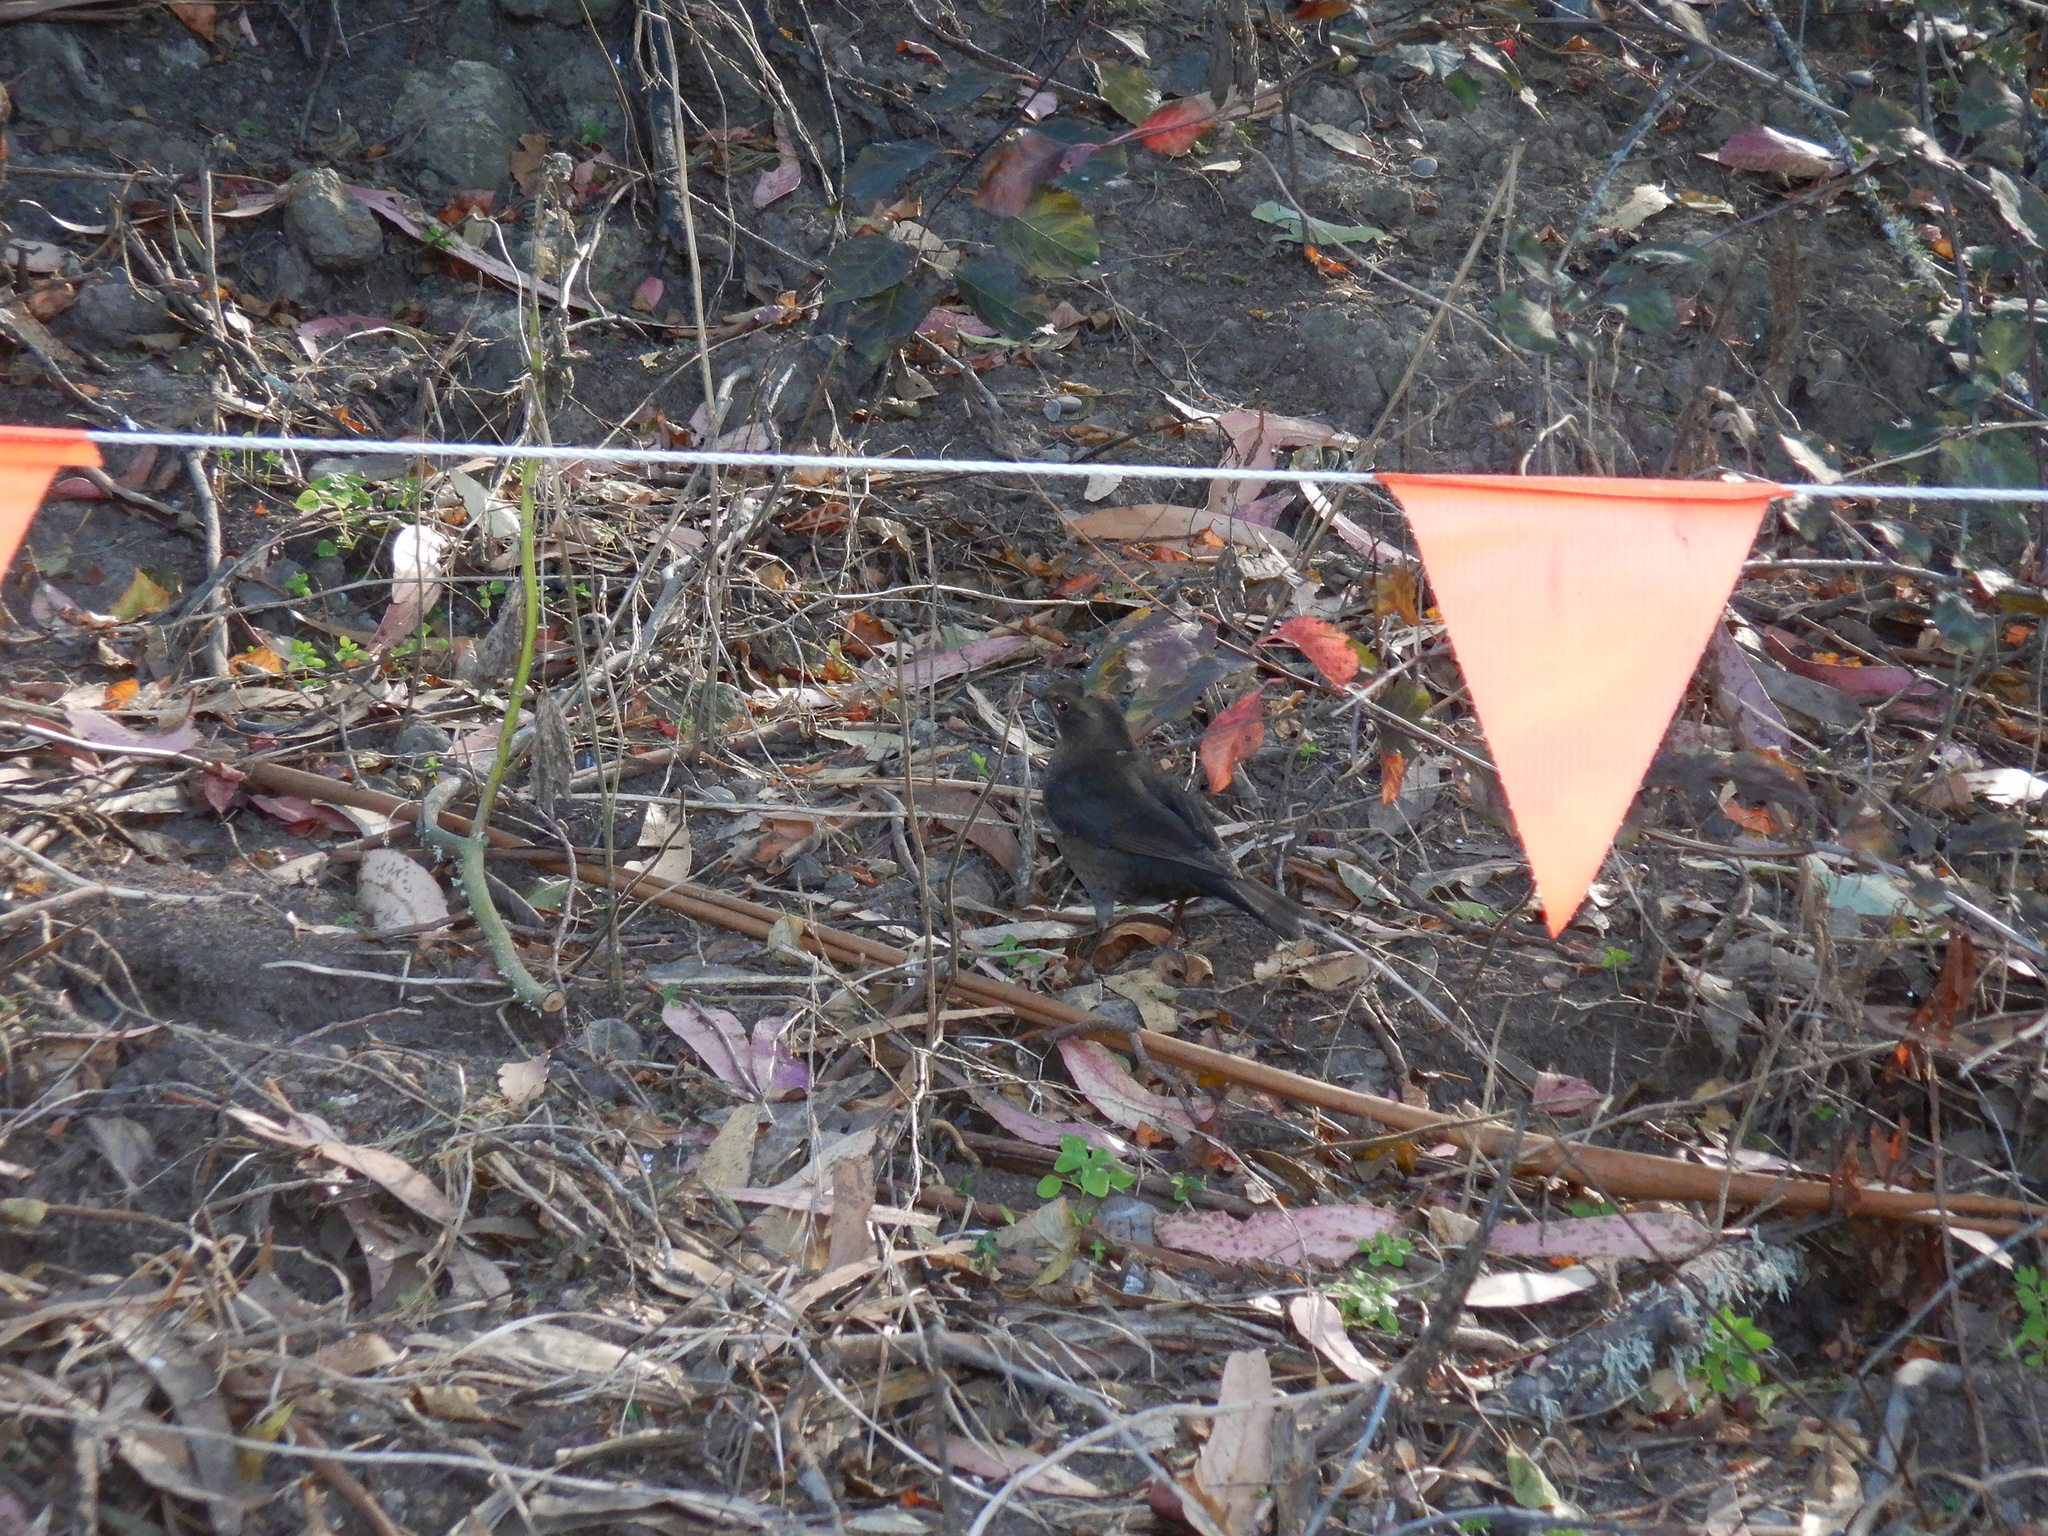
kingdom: Animalia
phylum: Chordata
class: Aves
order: Passeriformes
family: Turdidae
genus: Turdus
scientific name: Turdus merula
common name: Common blackbird
